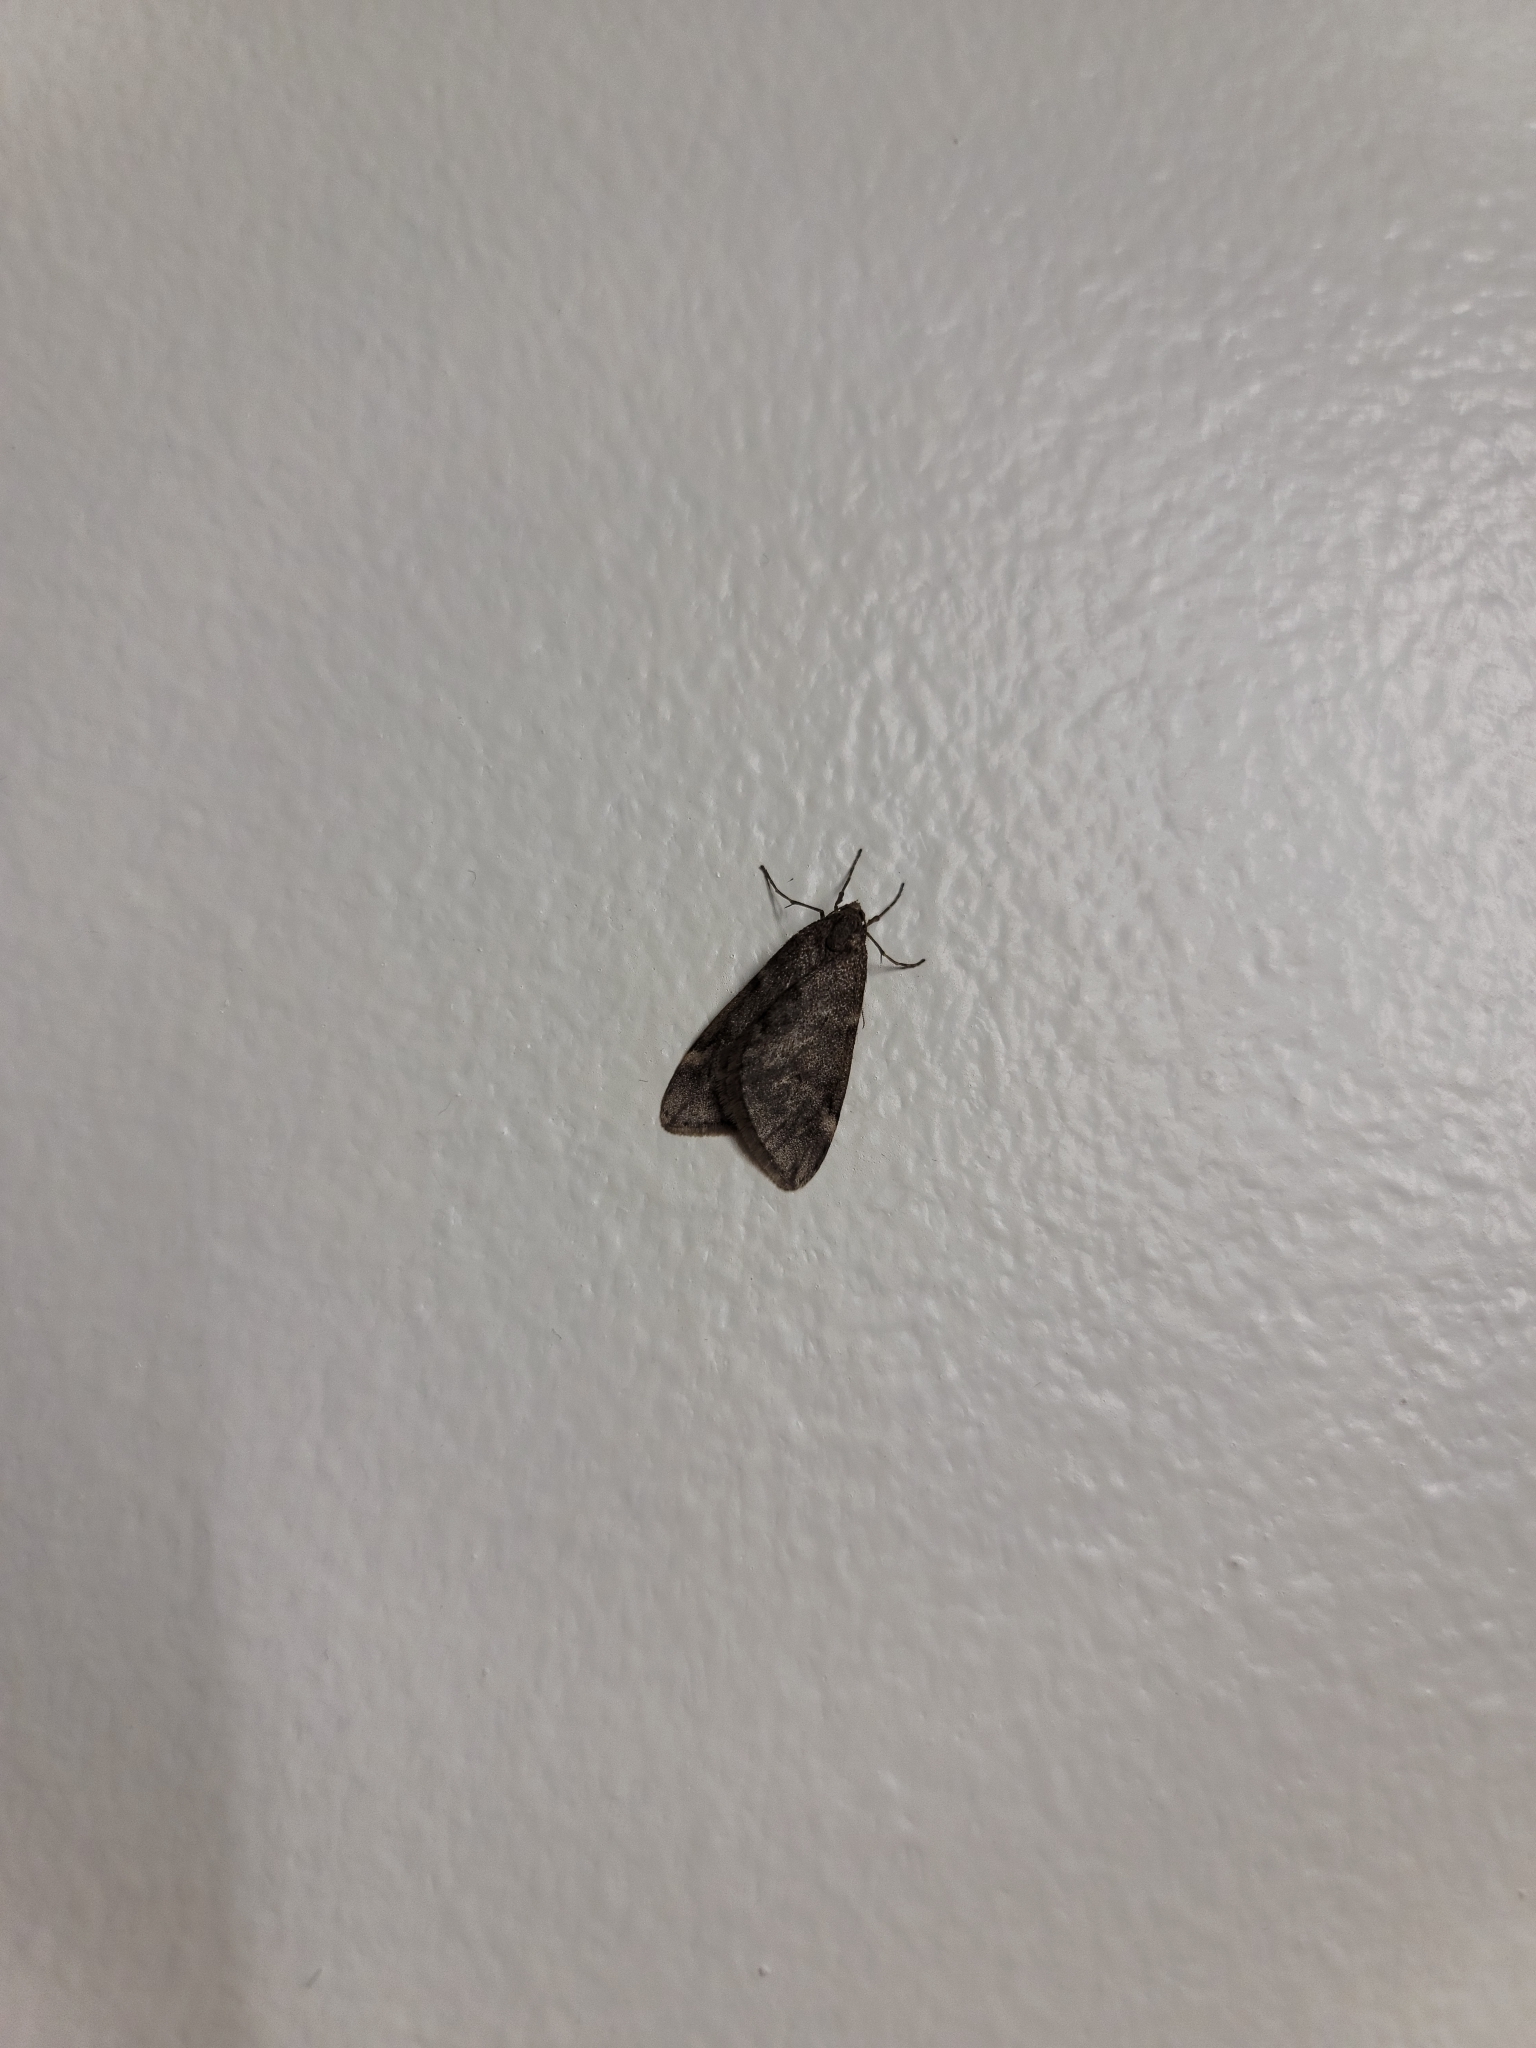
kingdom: Animalia
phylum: Arthropoda
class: Insecta
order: Lepidoptera
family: Geometridae
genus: Alsophila
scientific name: Alsophila pometaria
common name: Fall cankerworm
